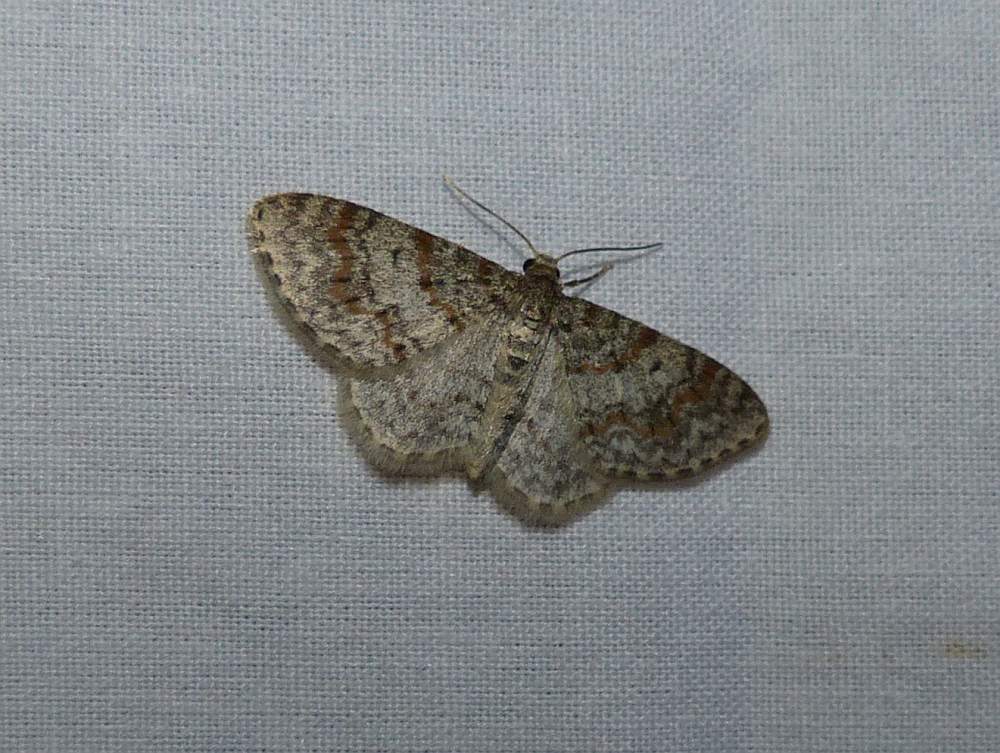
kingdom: Animalia
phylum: Arthropoda
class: Insecta
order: Lepidoptera
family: Geometridae
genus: Hydrelia
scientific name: Hydrelia inornata
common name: Unadorned carpet moth
